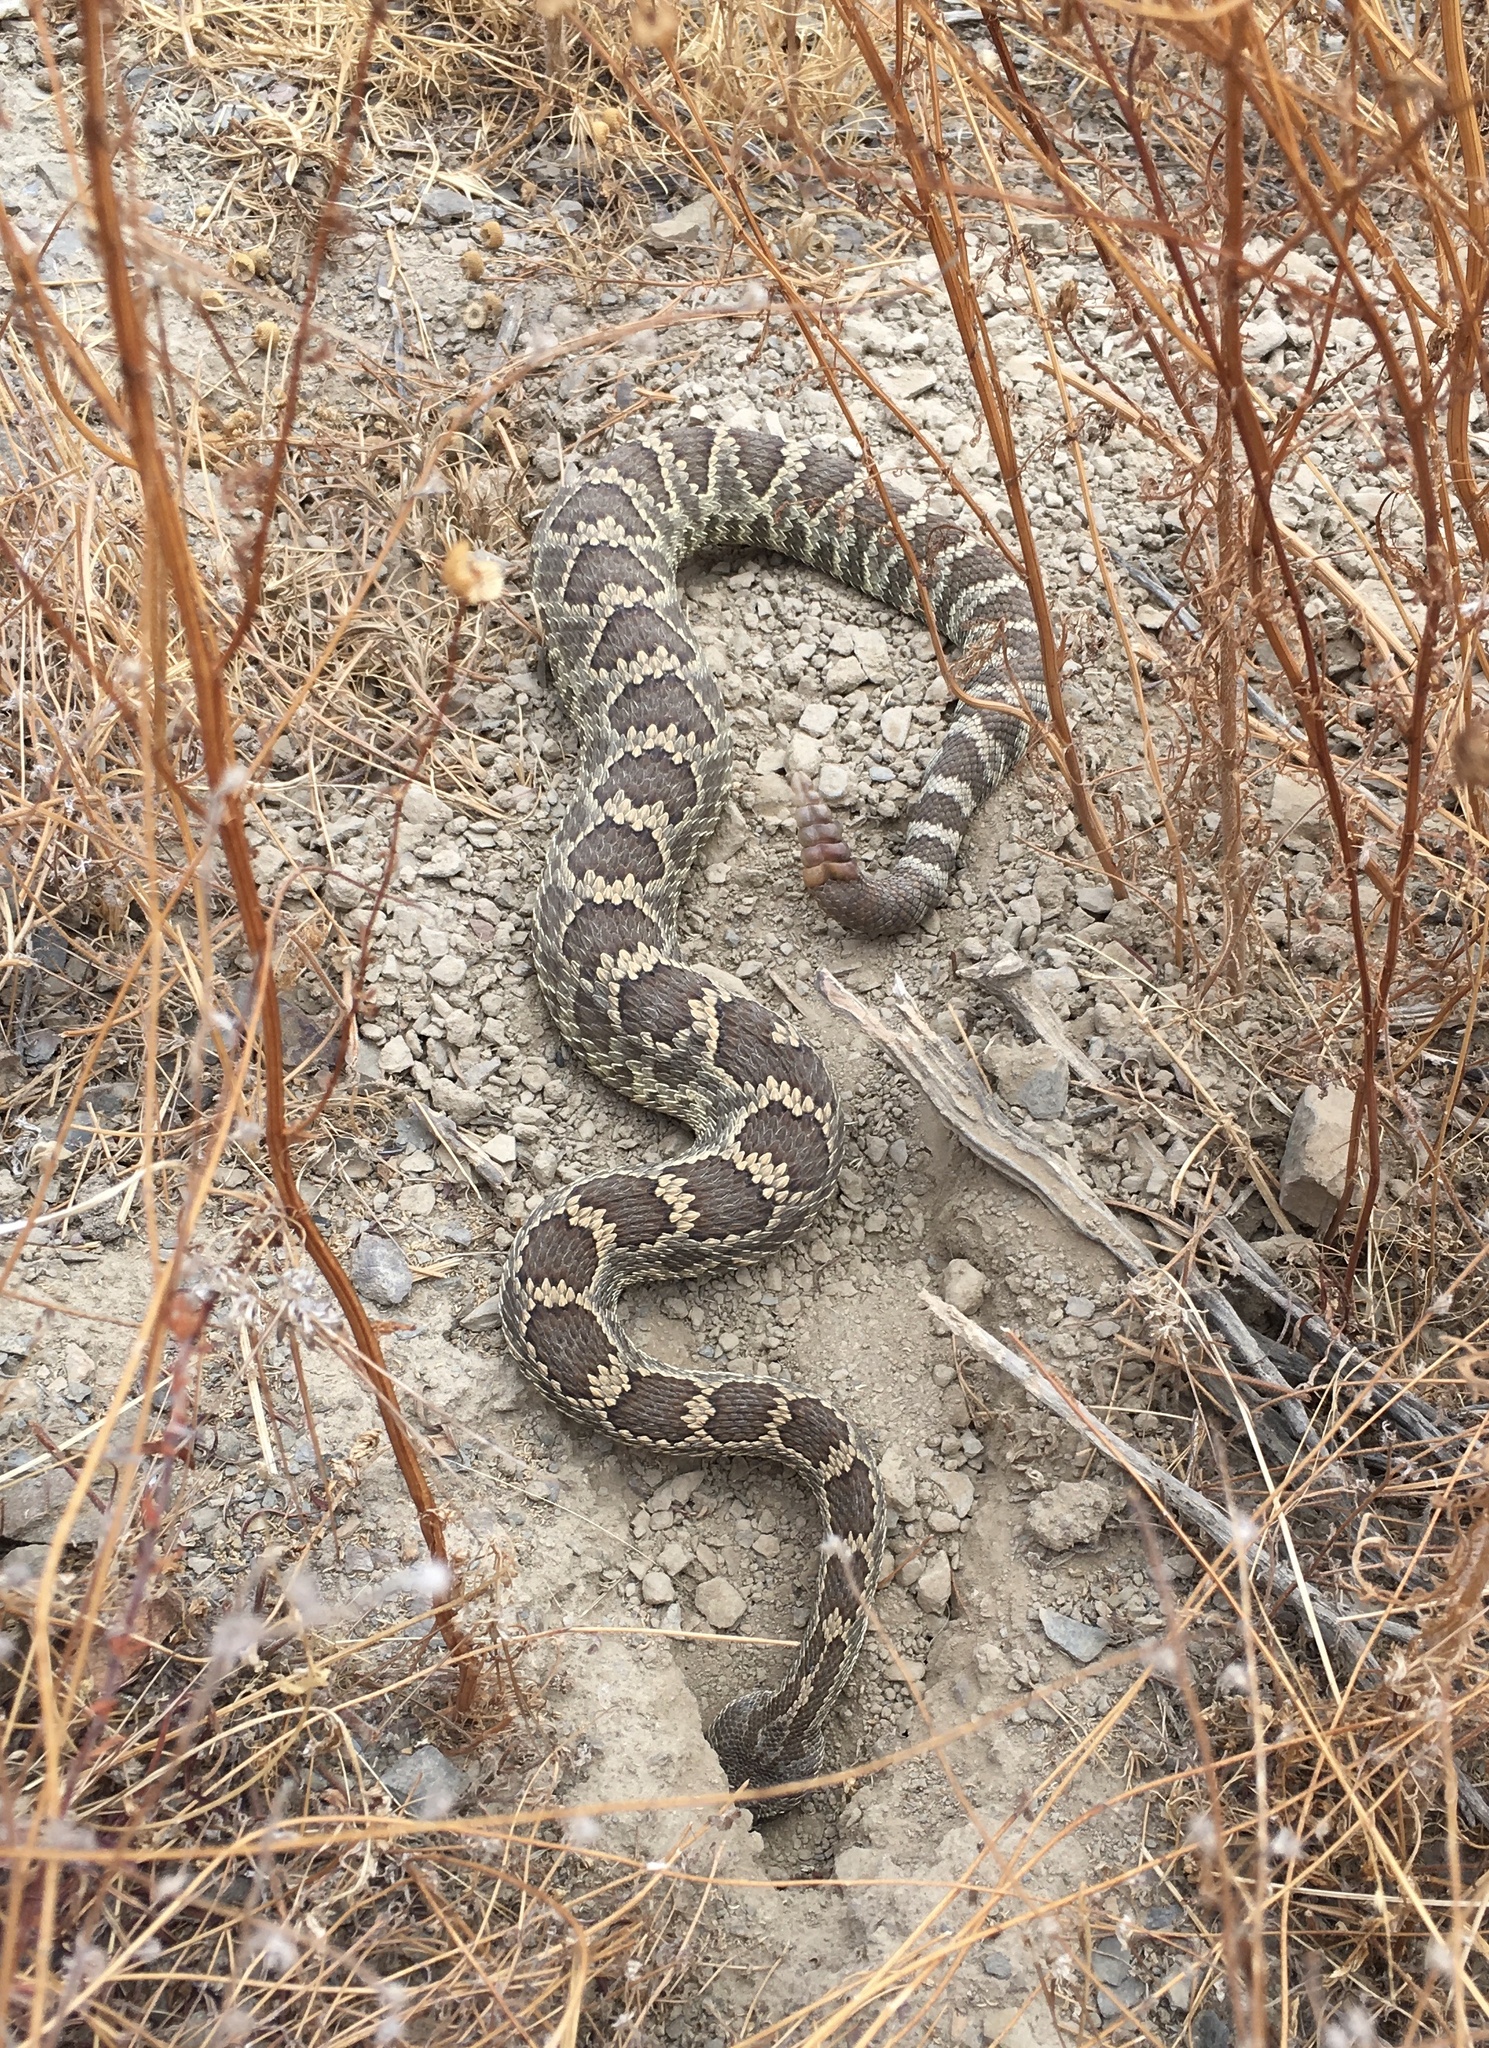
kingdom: Animalia
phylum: Chordata
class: Squamata
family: Viperidae
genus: Crotalus
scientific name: Crotalus oreganus
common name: Abyssus
